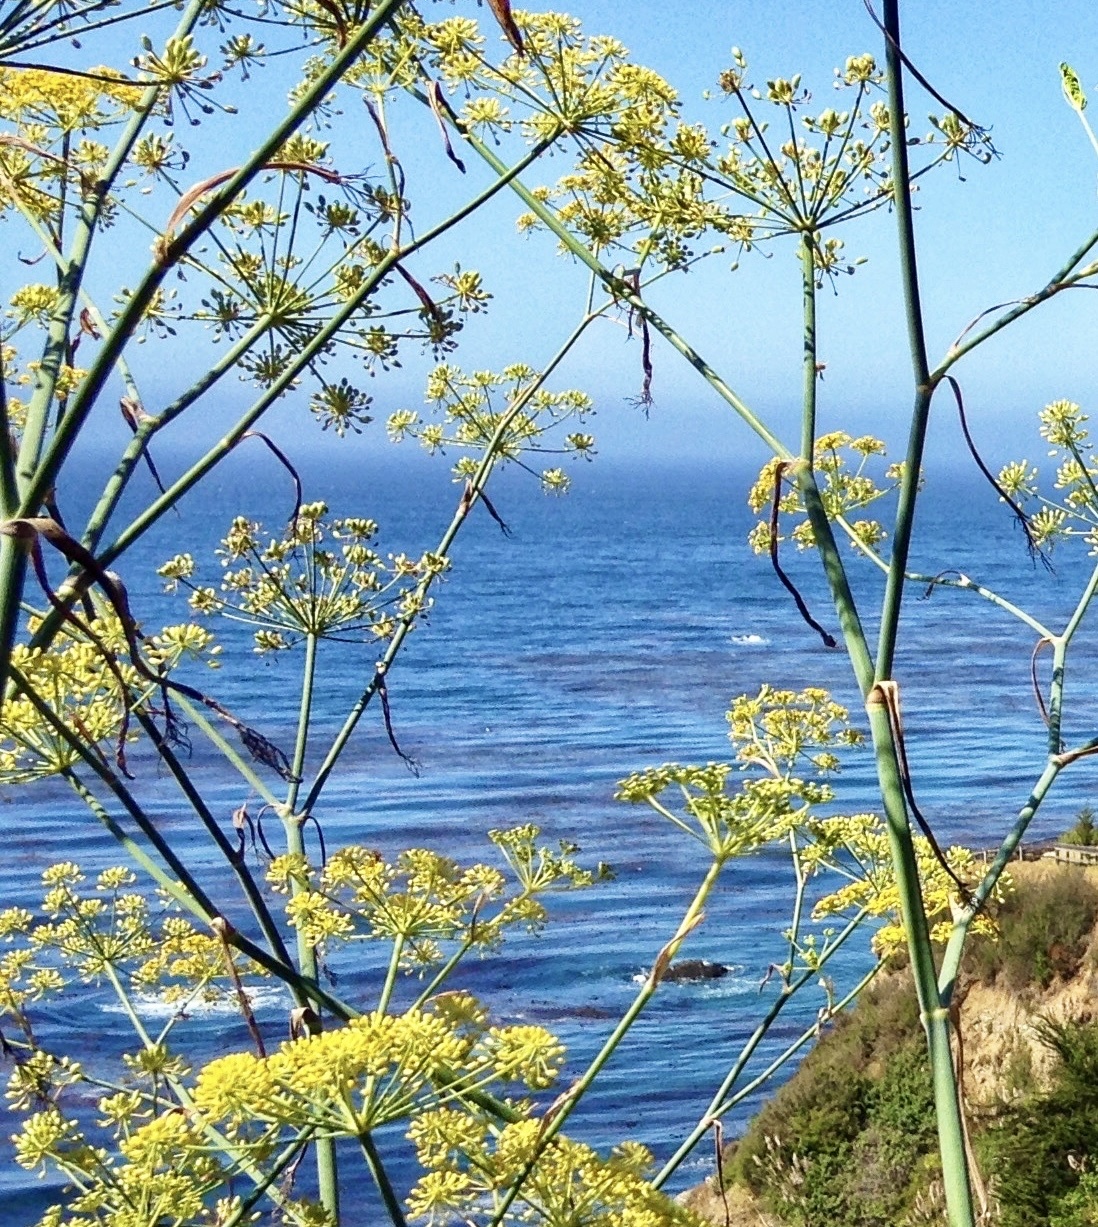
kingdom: Plantae
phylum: Tracheophyta
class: Magnoliopsida
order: Apiales
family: Apiaceae
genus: Foeniculum
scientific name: Foeniculum vulgare
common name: Fennel
